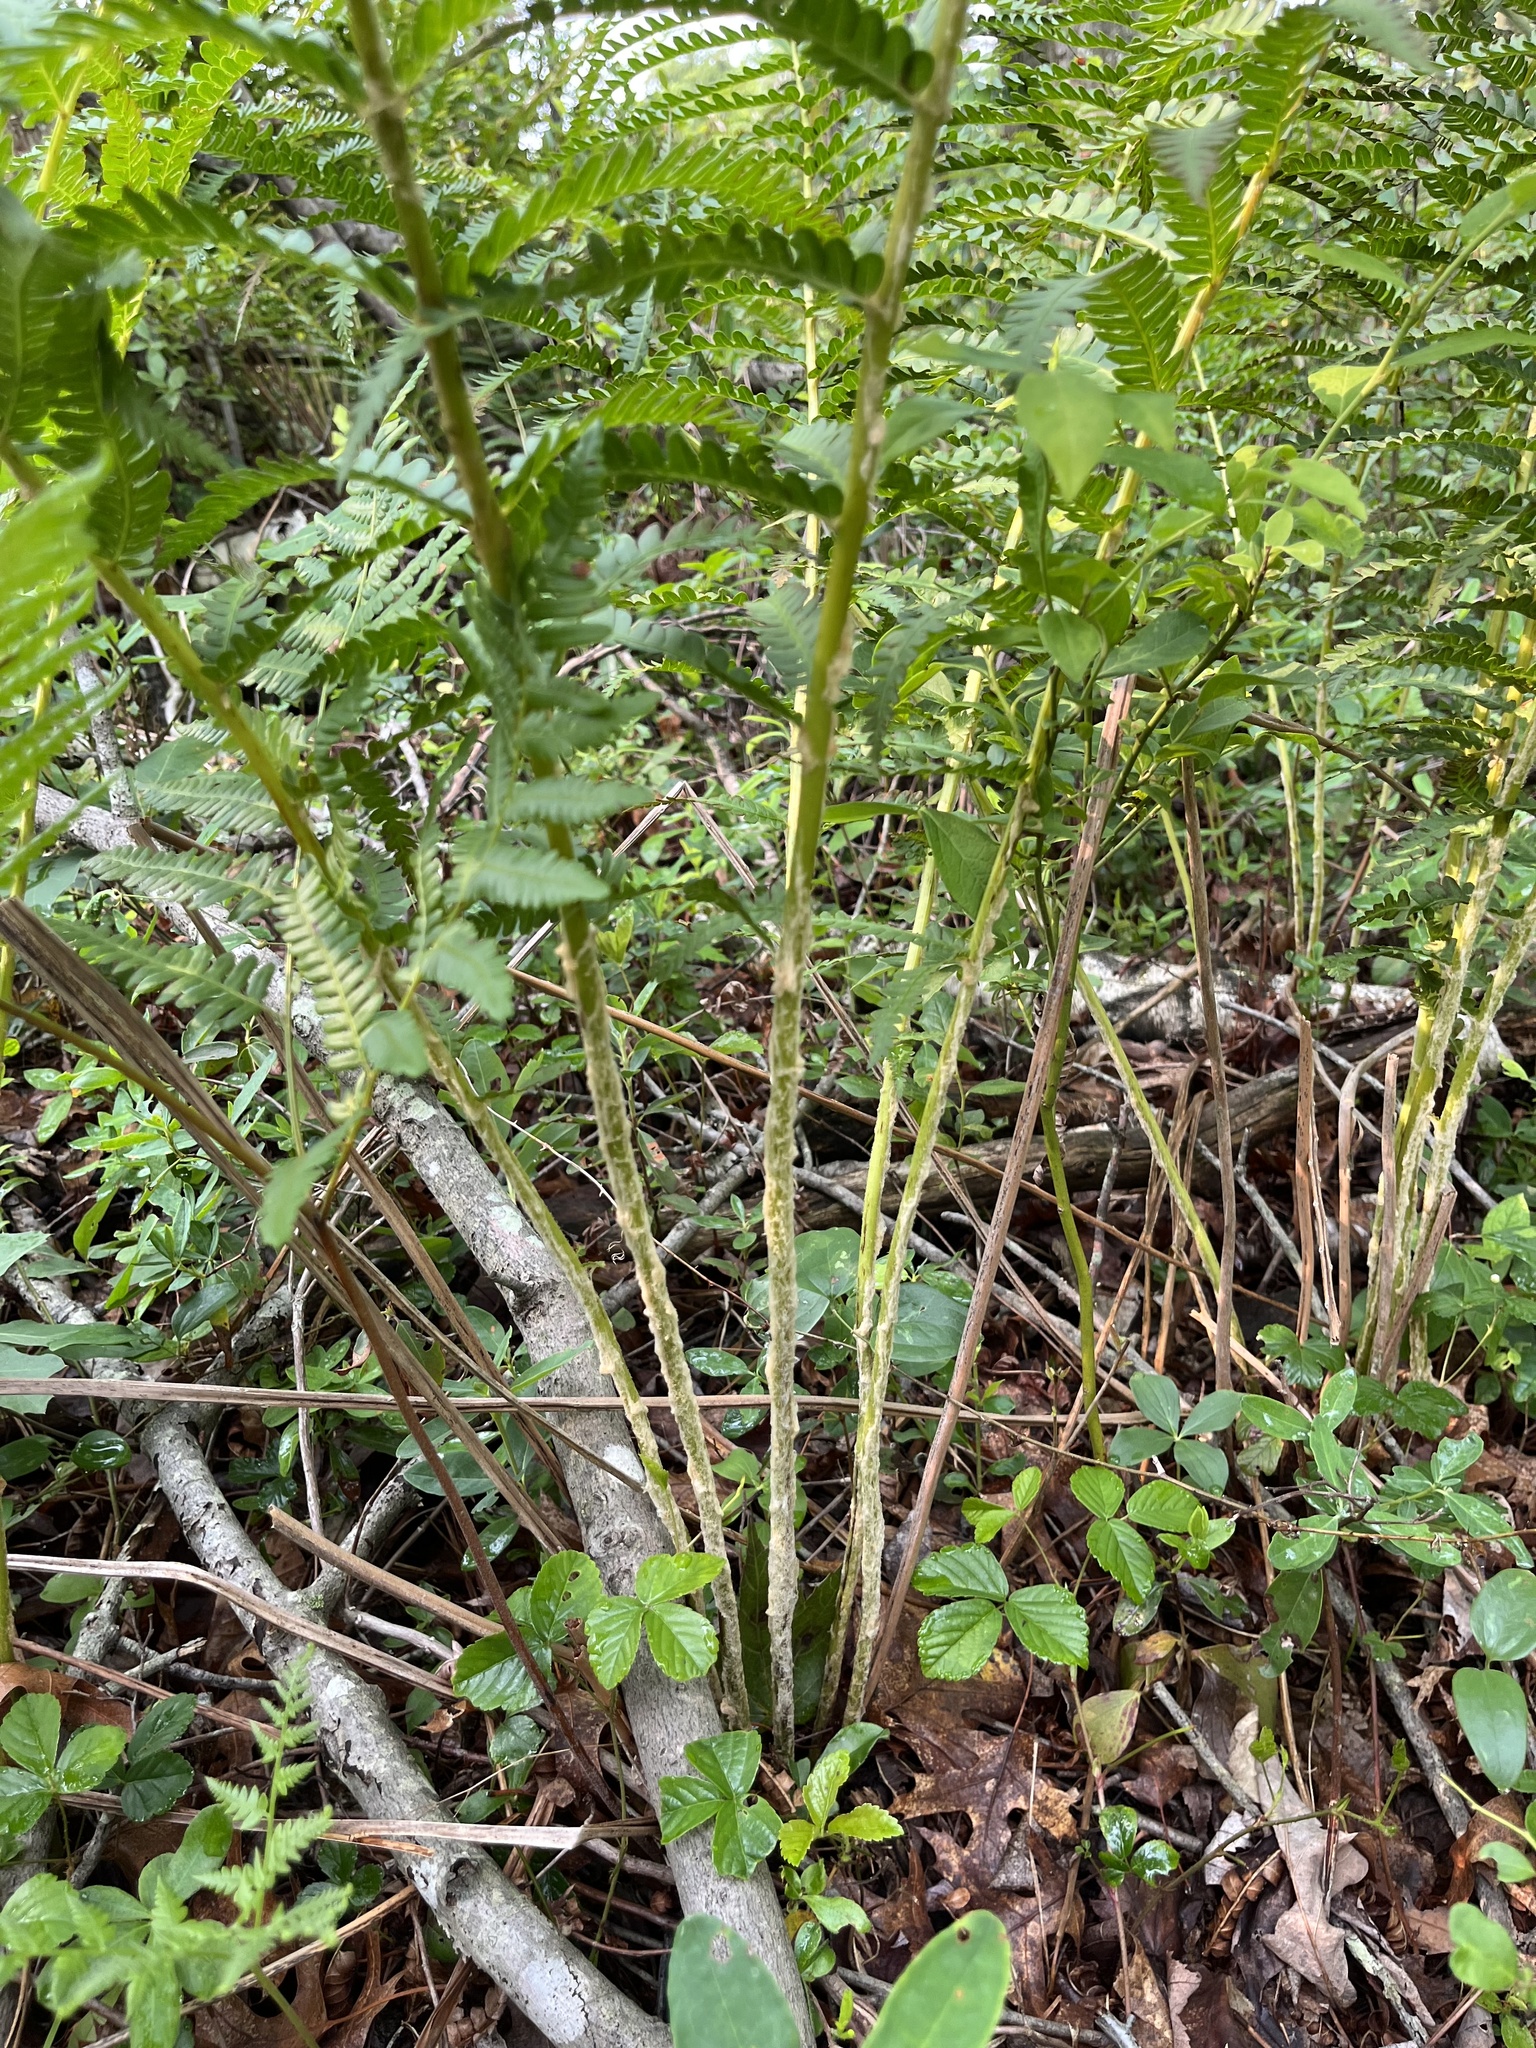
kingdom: Plantae
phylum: Tracheophyta
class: Polypodiopsida
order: Osmundales
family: Osmundaceae
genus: Osmundastrum
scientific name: Osmundastrum cinnamomeum
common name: Cinnamon fern
